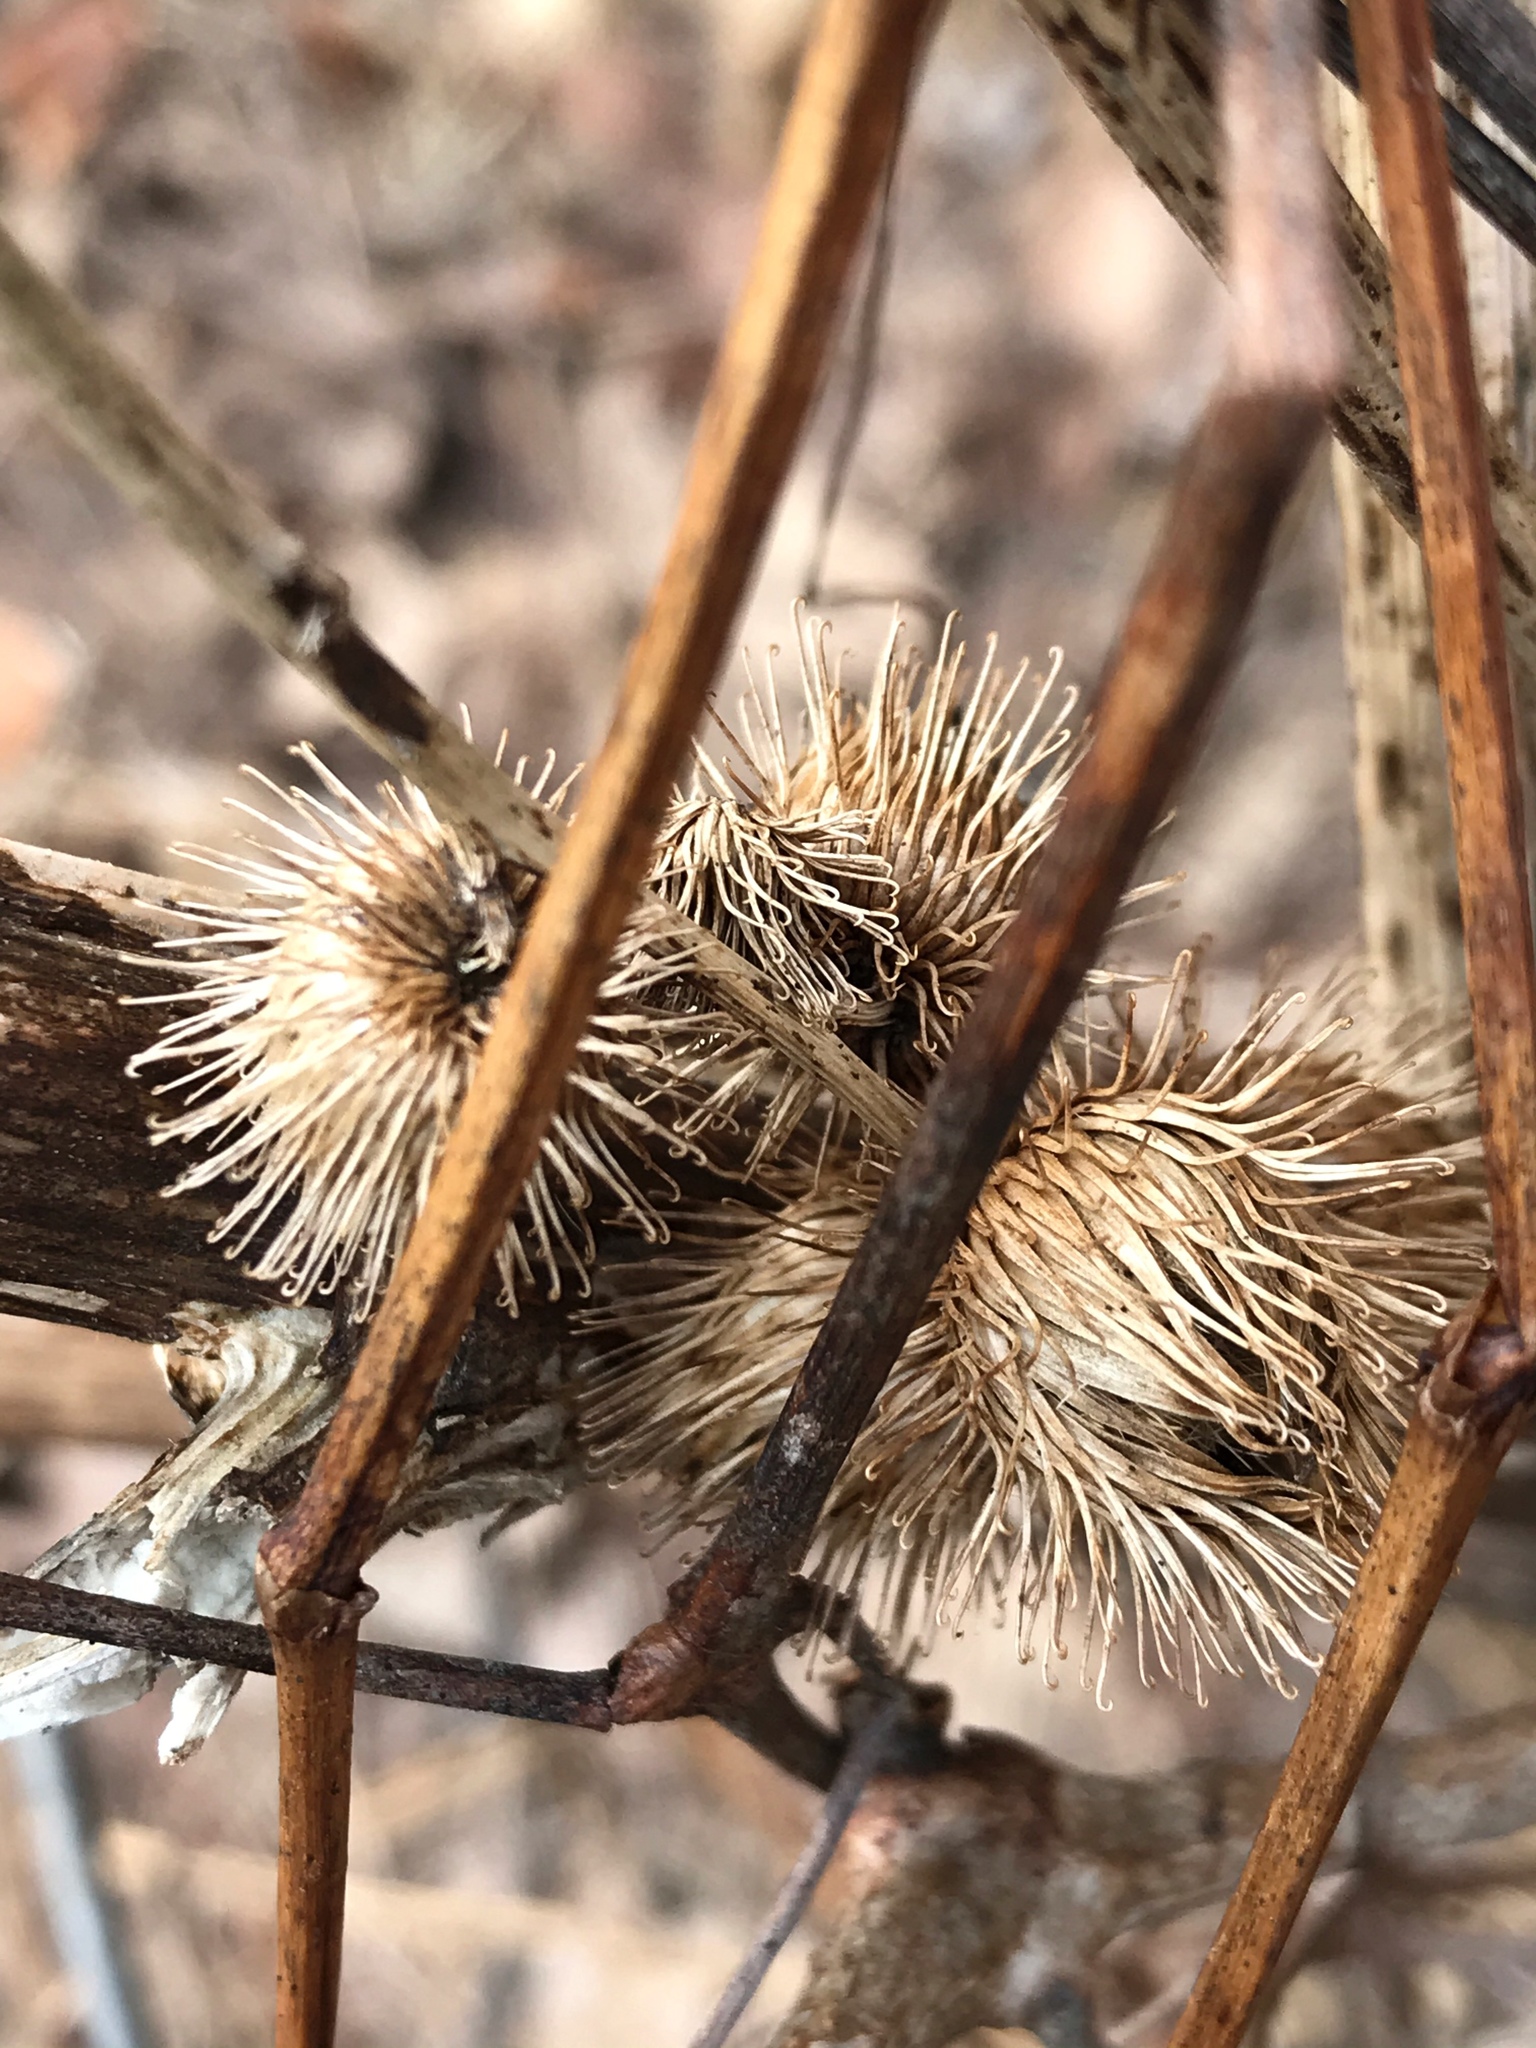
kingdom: Plantae
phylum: Tracheophyta
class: Magnoliopsida
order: Asterales
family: Asteraceae
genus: Arctium
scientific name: Arctium minus
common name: Lesser burdock
